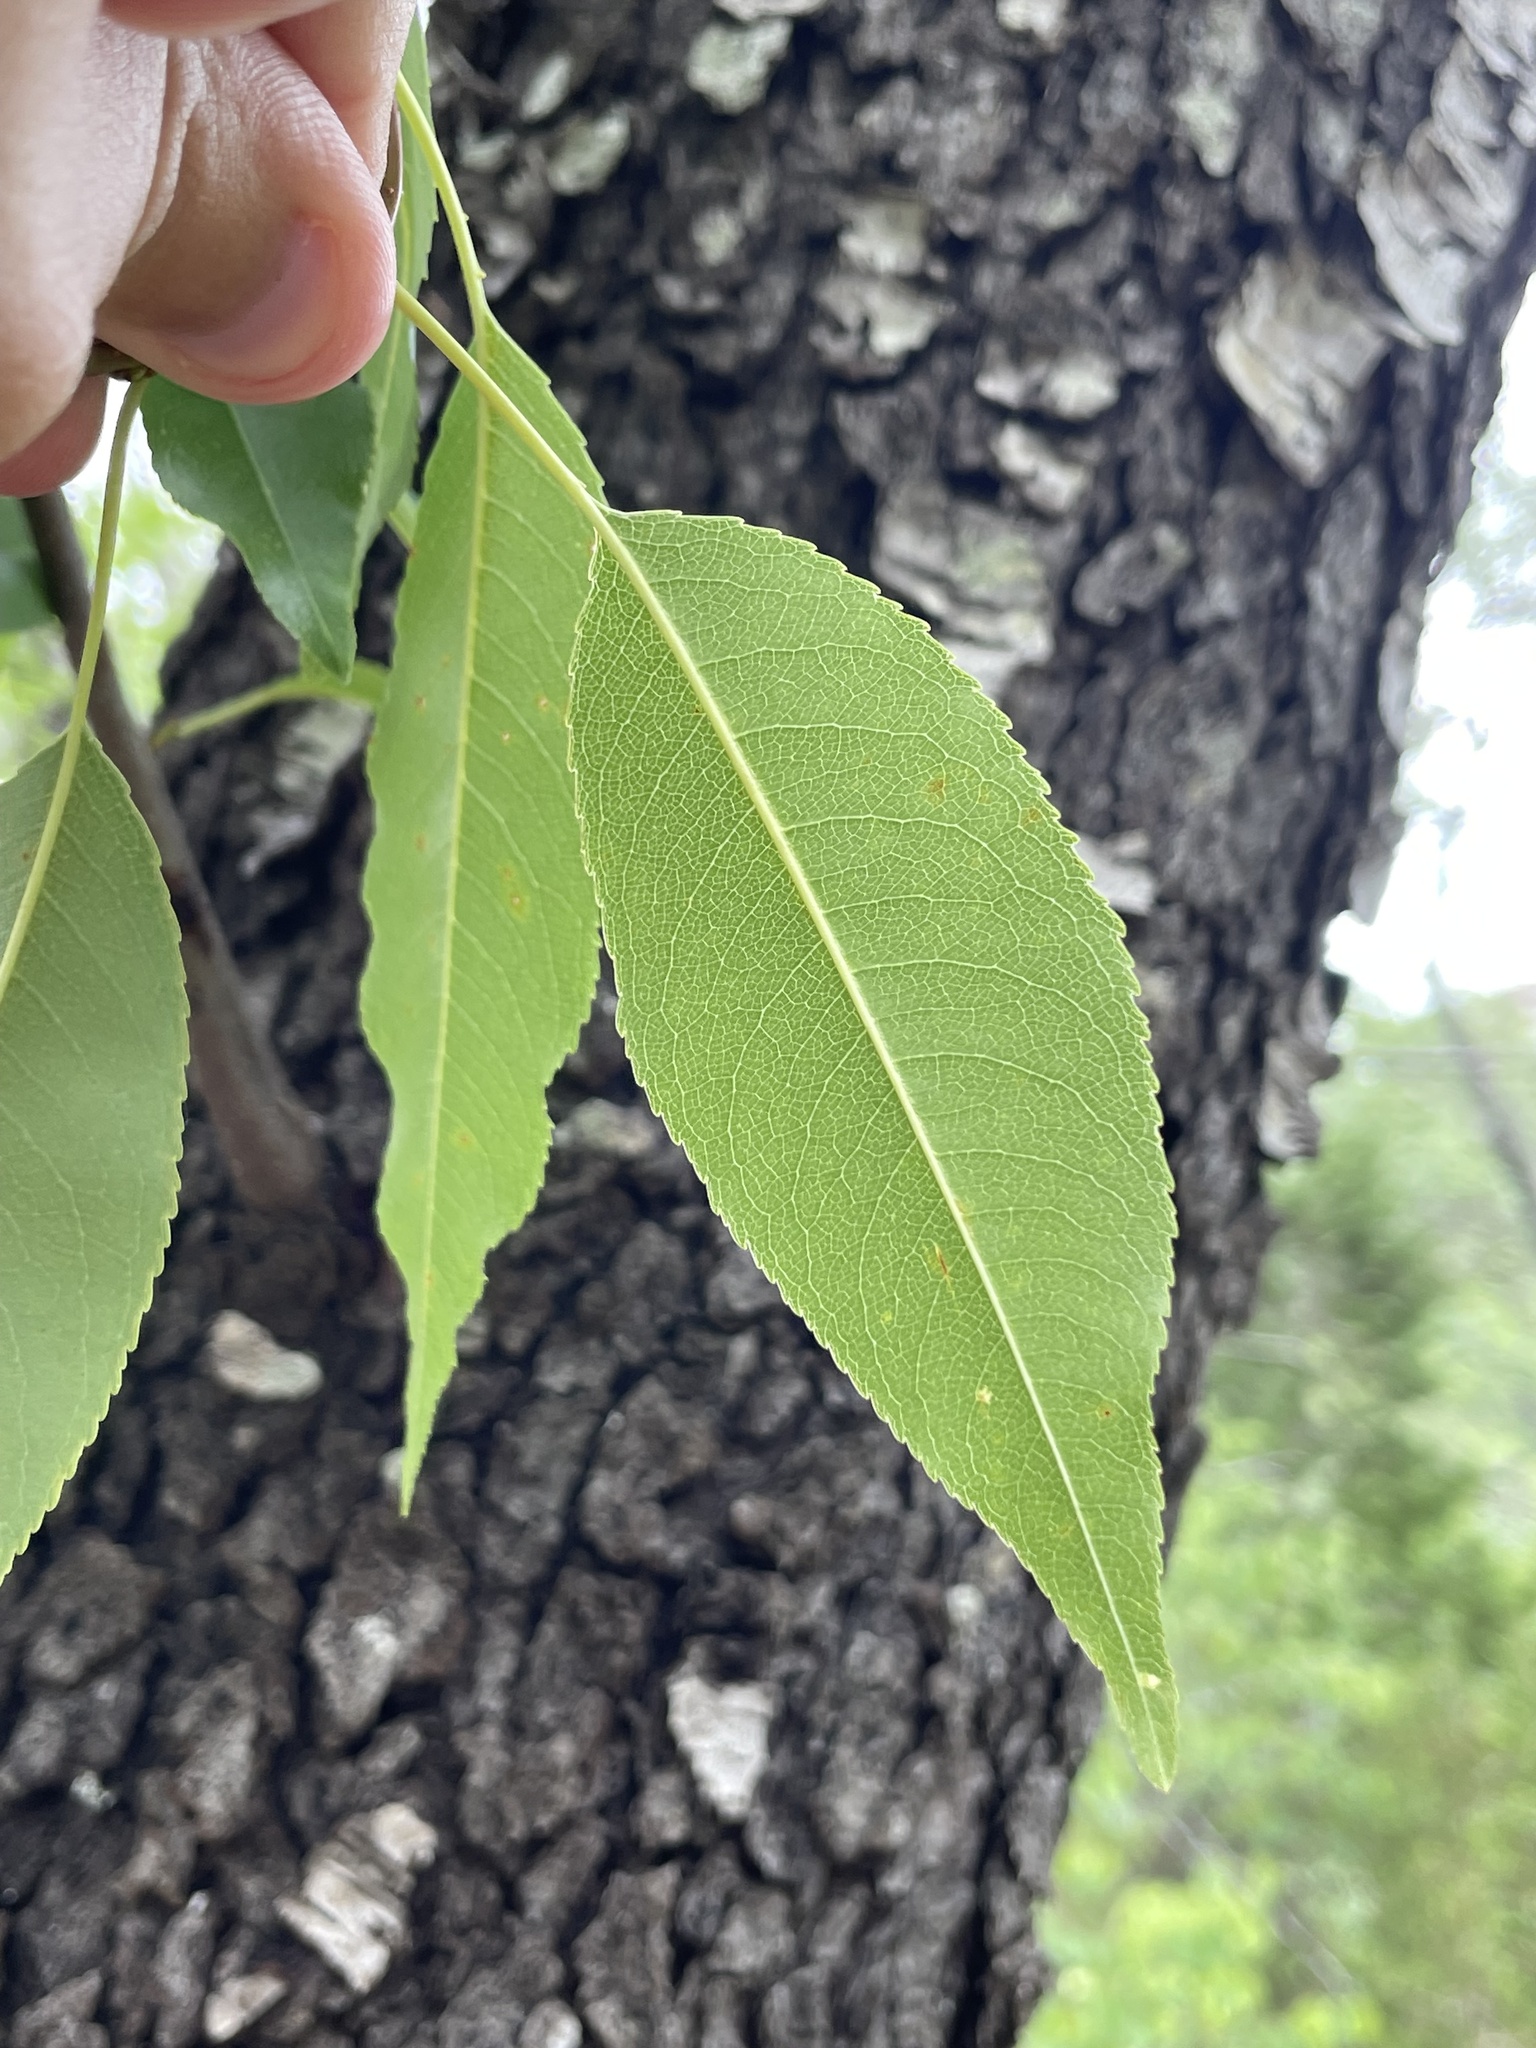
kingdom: Plantae
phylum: Tracheophyta
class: Magnoliopsida
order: Rosales
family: Rosaceae
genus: Prunus
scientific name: Prunus serotina
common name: Black cherry
